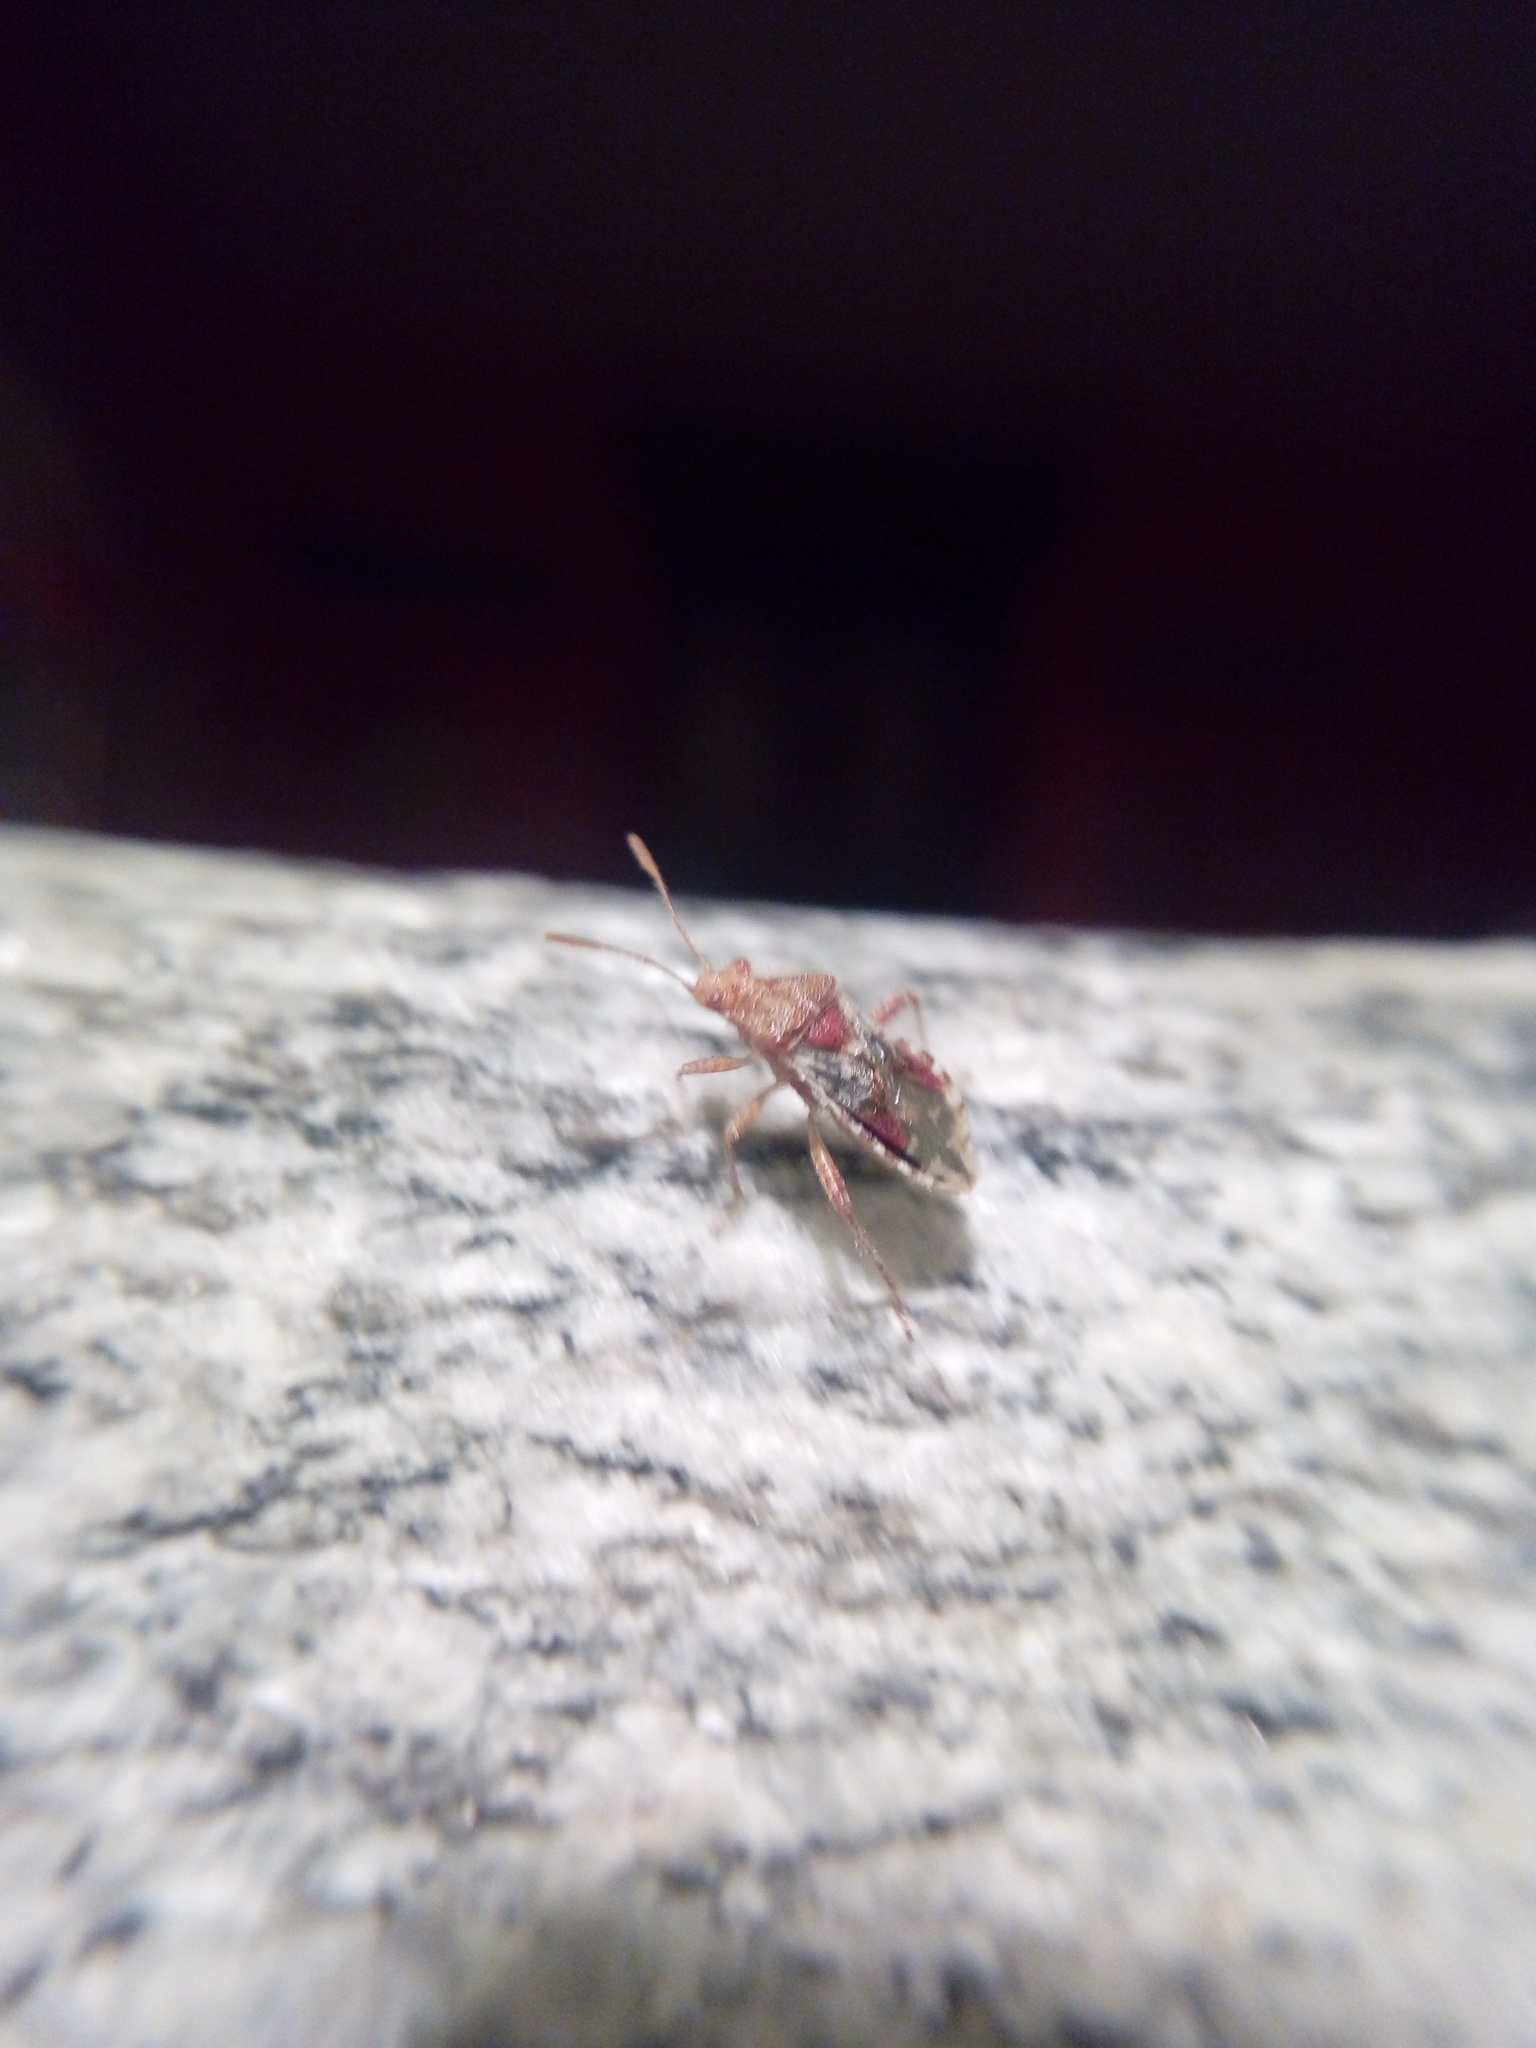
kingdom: Animalia
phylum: Arthropoda
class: Insecta
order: Hemiptera
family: Rhopalidae
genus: Rhopalus
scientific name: Rhopalus subrufus
